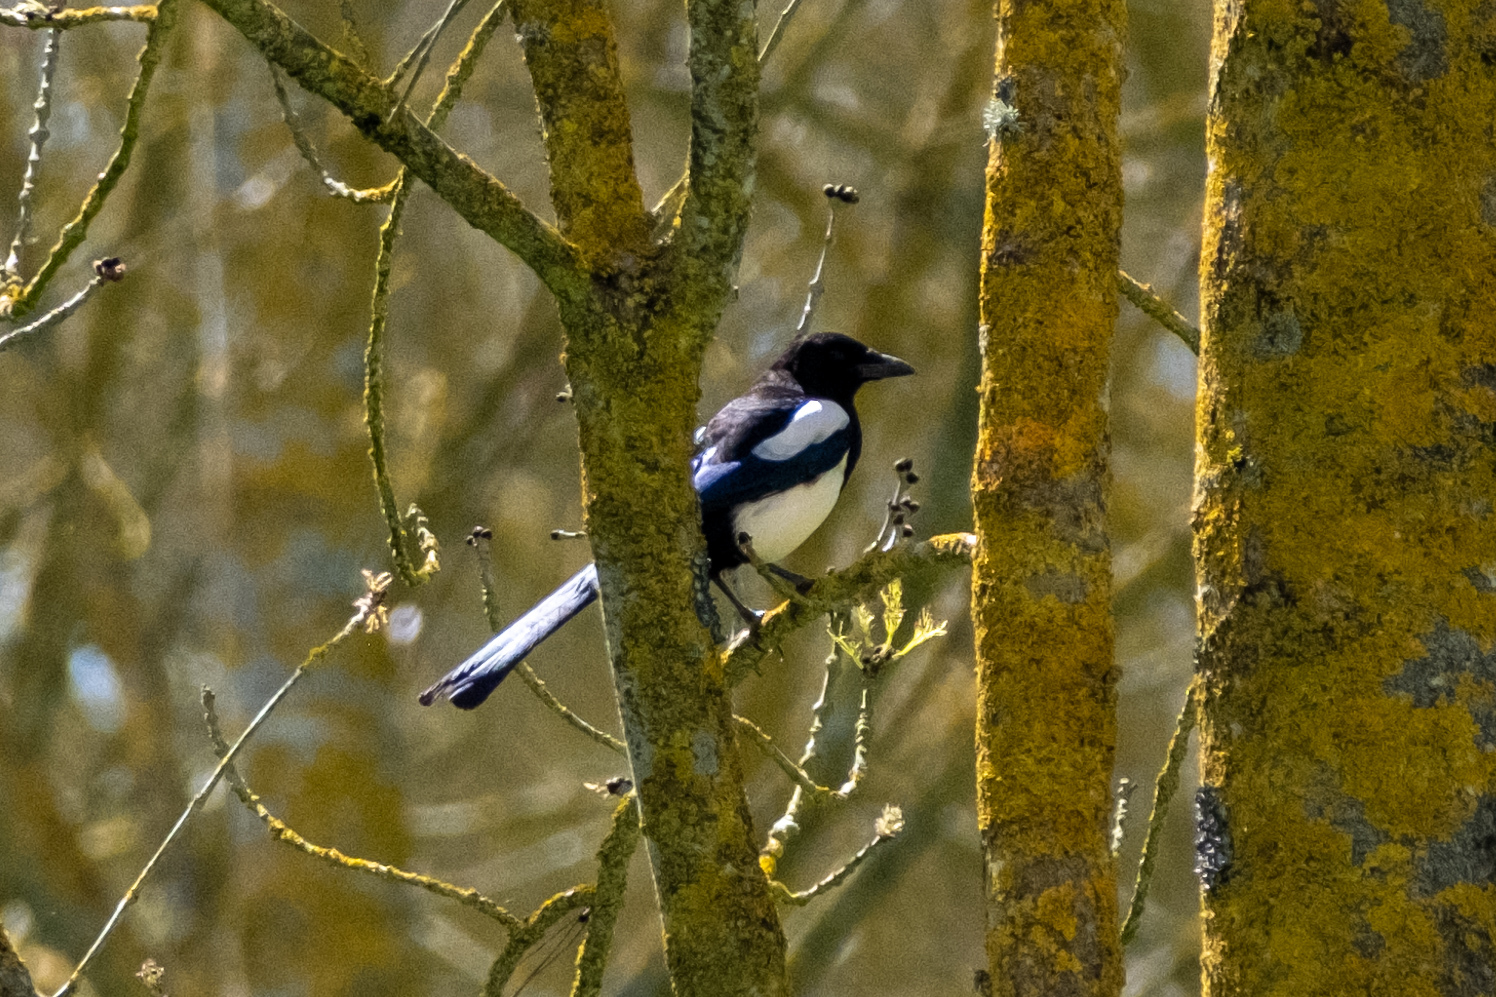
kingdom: Animalia
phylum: Chordata
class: Aves
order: Passeriformes
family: Corvidae
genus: Pica
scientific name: Pica pica
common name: Eurasian magpie
